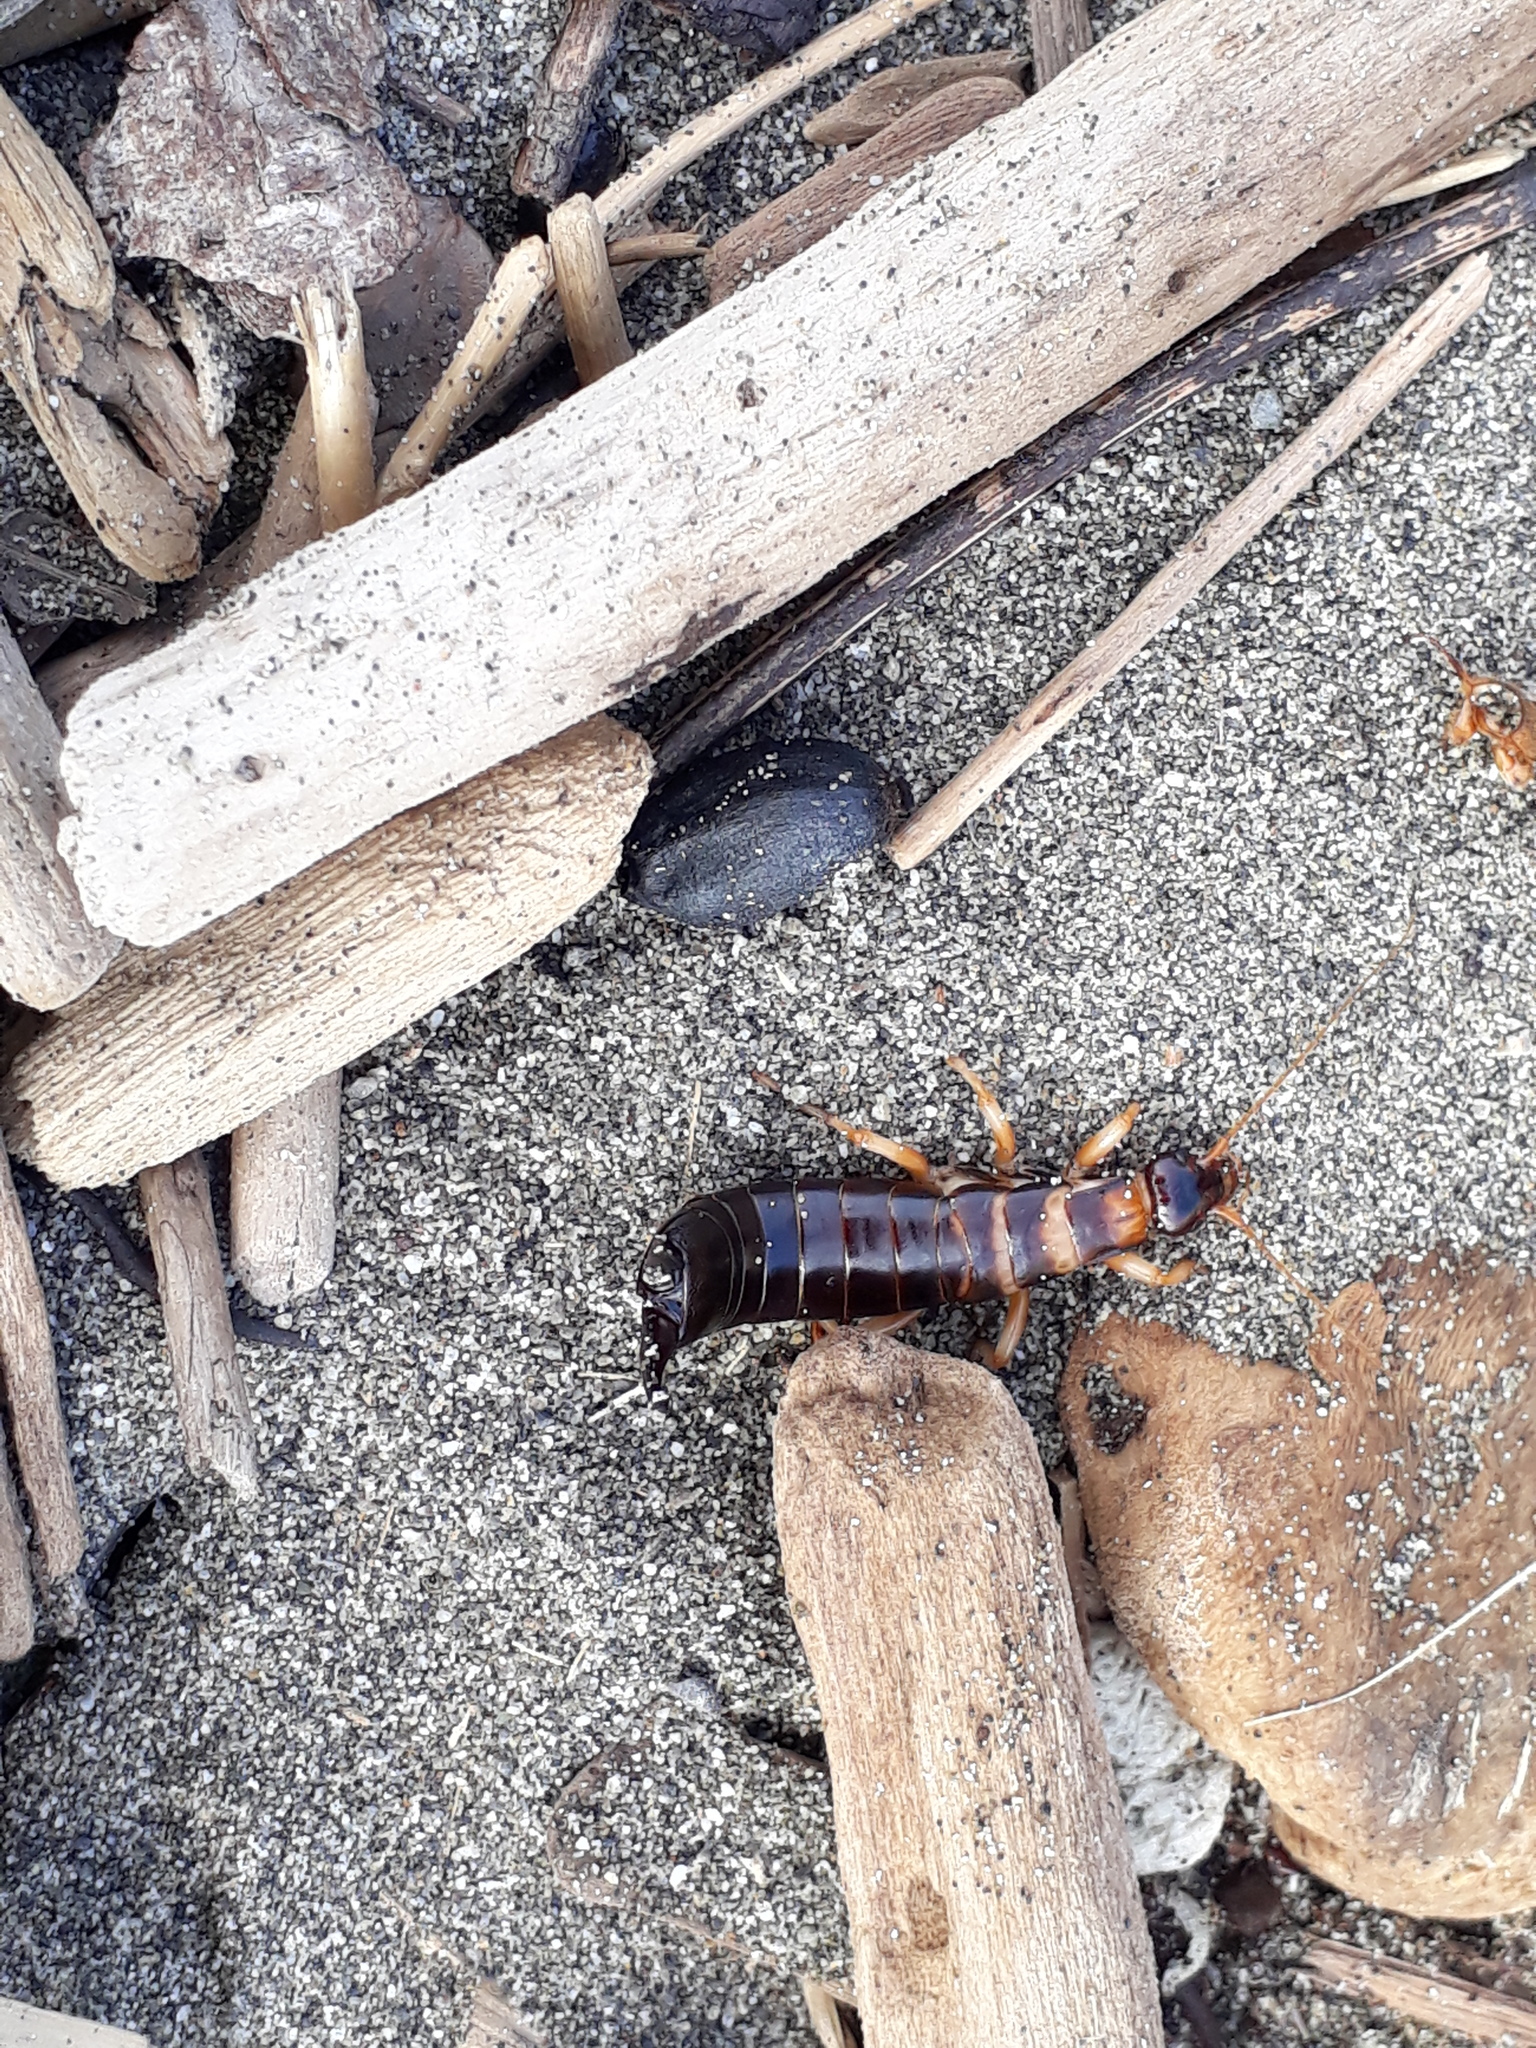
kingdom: Animalia
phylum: Arthropoda
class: Insecta
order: Dermaptera
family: Anisolabididae
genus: Anisolabis
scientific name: Anisolabis littorea
